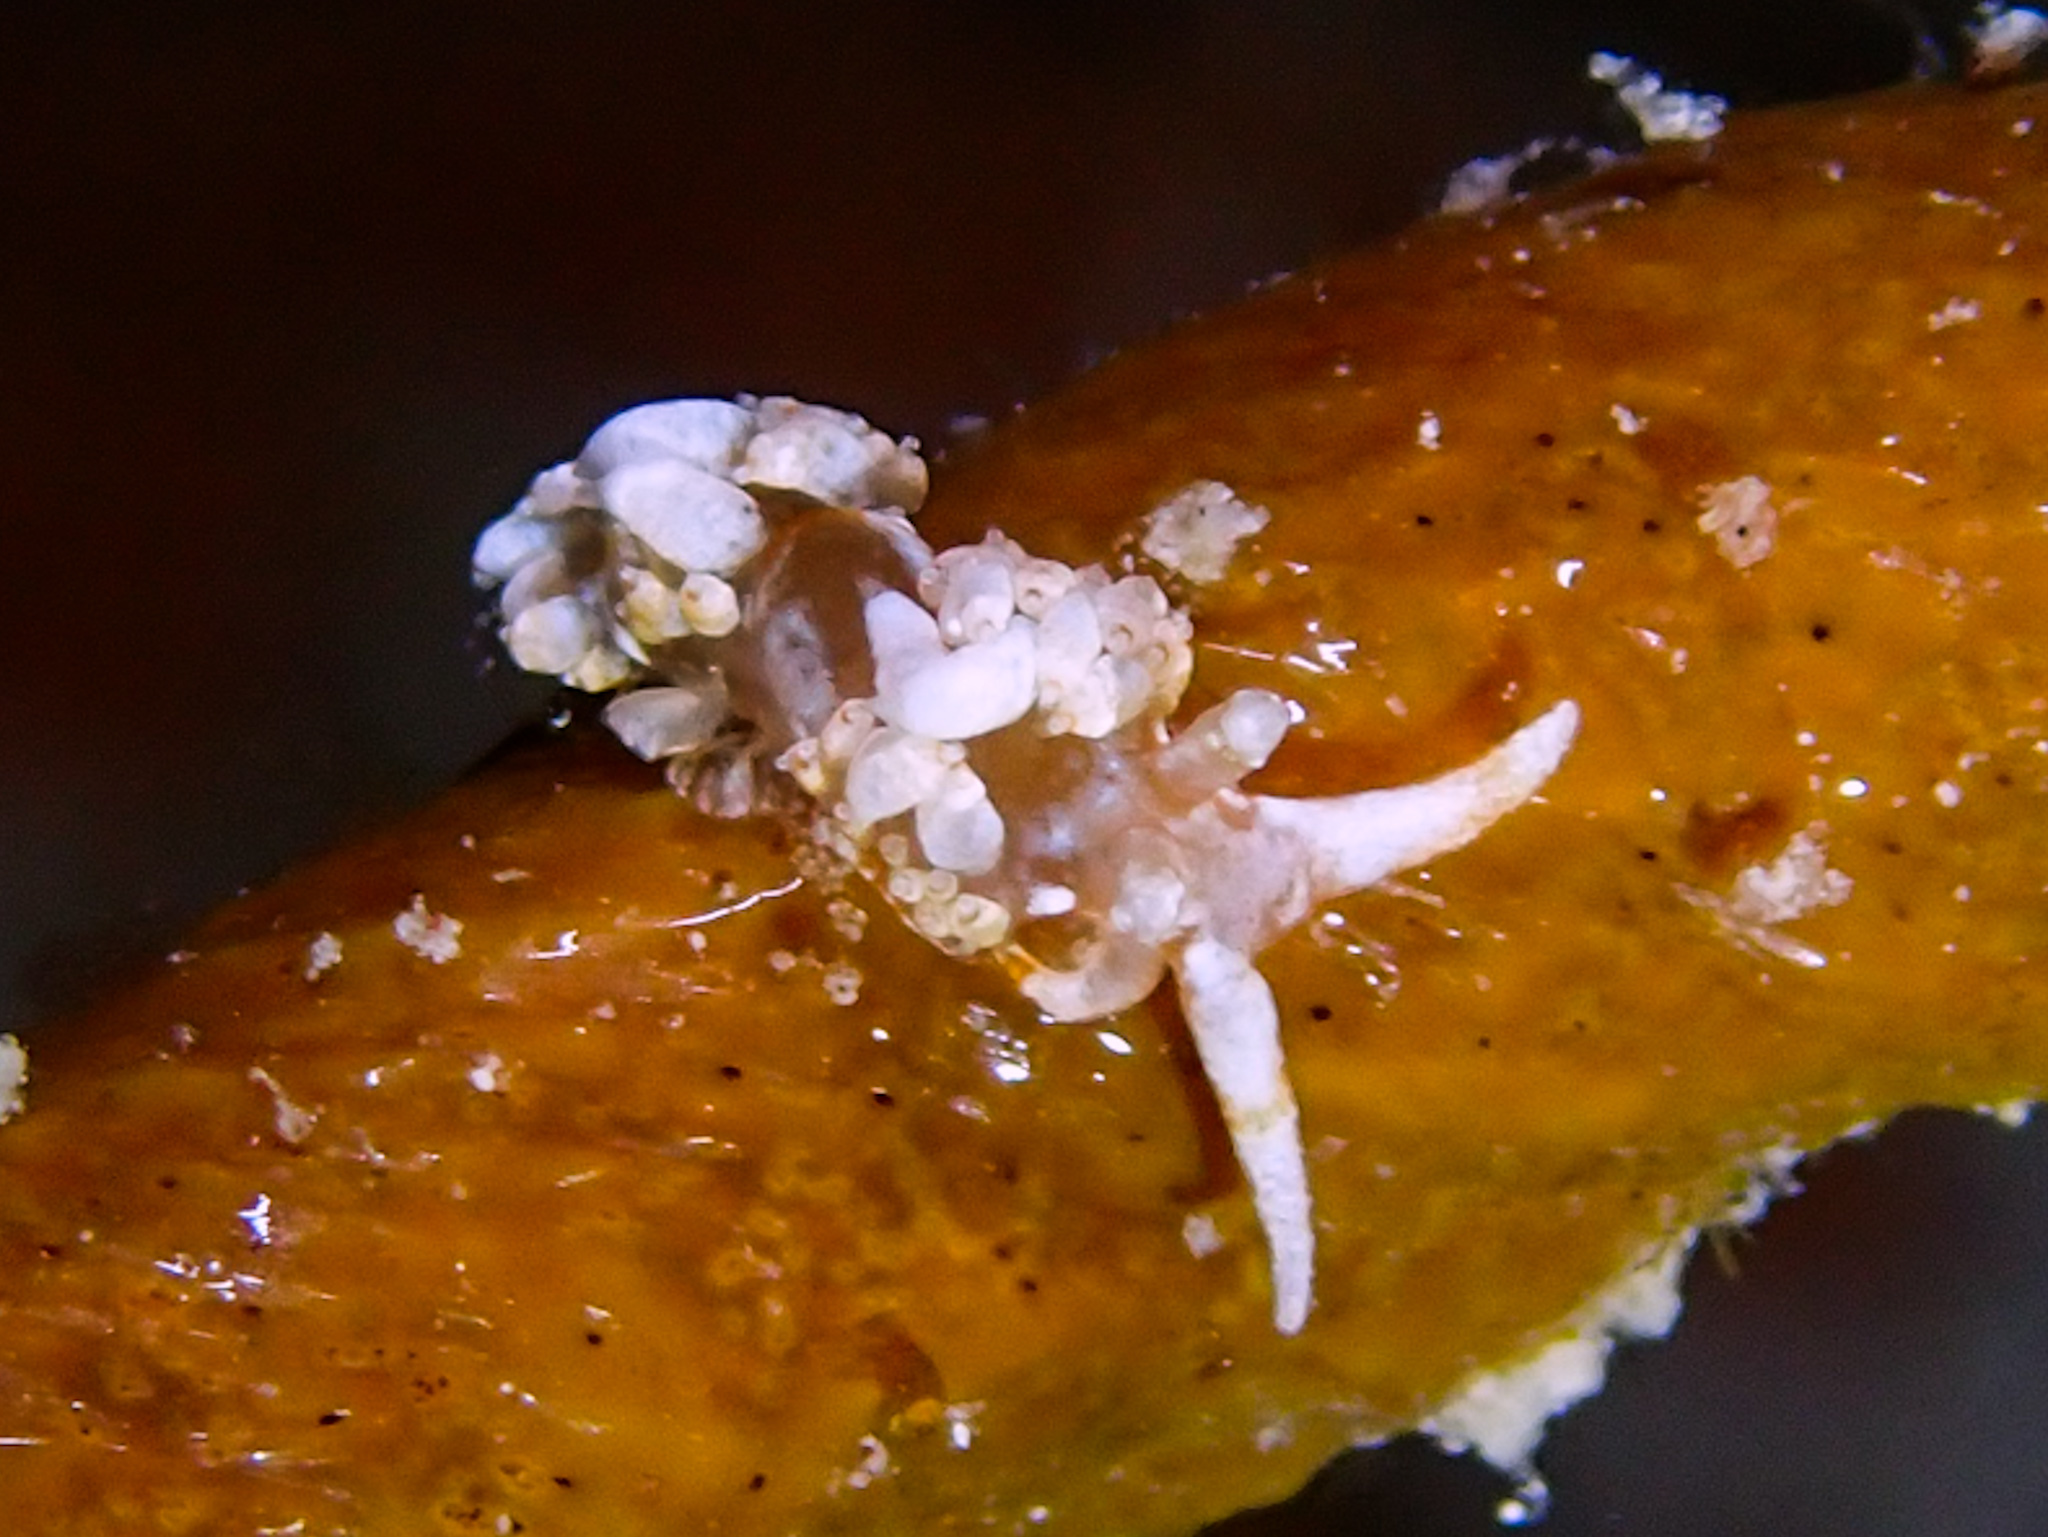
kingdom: Animalia
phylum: Mollusca
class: Gastropoda
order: Nudibranchia
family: Facelinidae
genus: Palisa
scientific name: Palisa papillata
